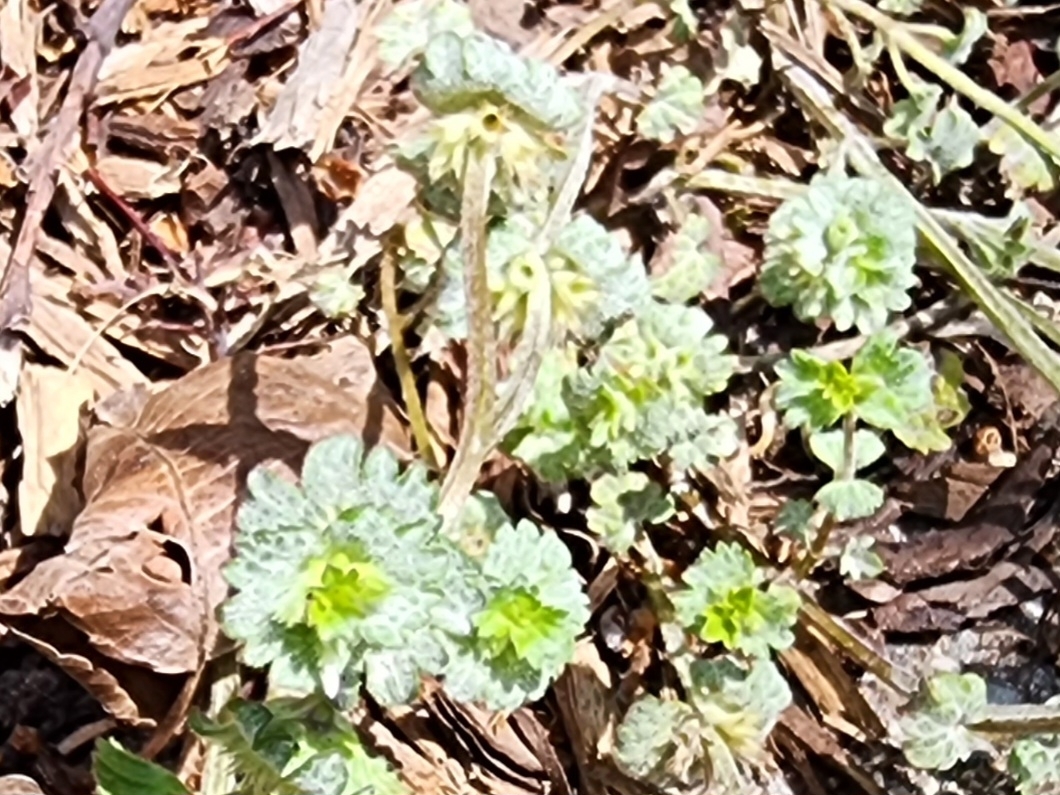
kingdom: Fungi
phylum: Ascomycota
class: Leotiomycetes
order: Helotiales
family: Erysiphaceae
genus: Neoerysiphe
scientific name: Neoerysiphe galeopsidis
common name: Mint mildew
